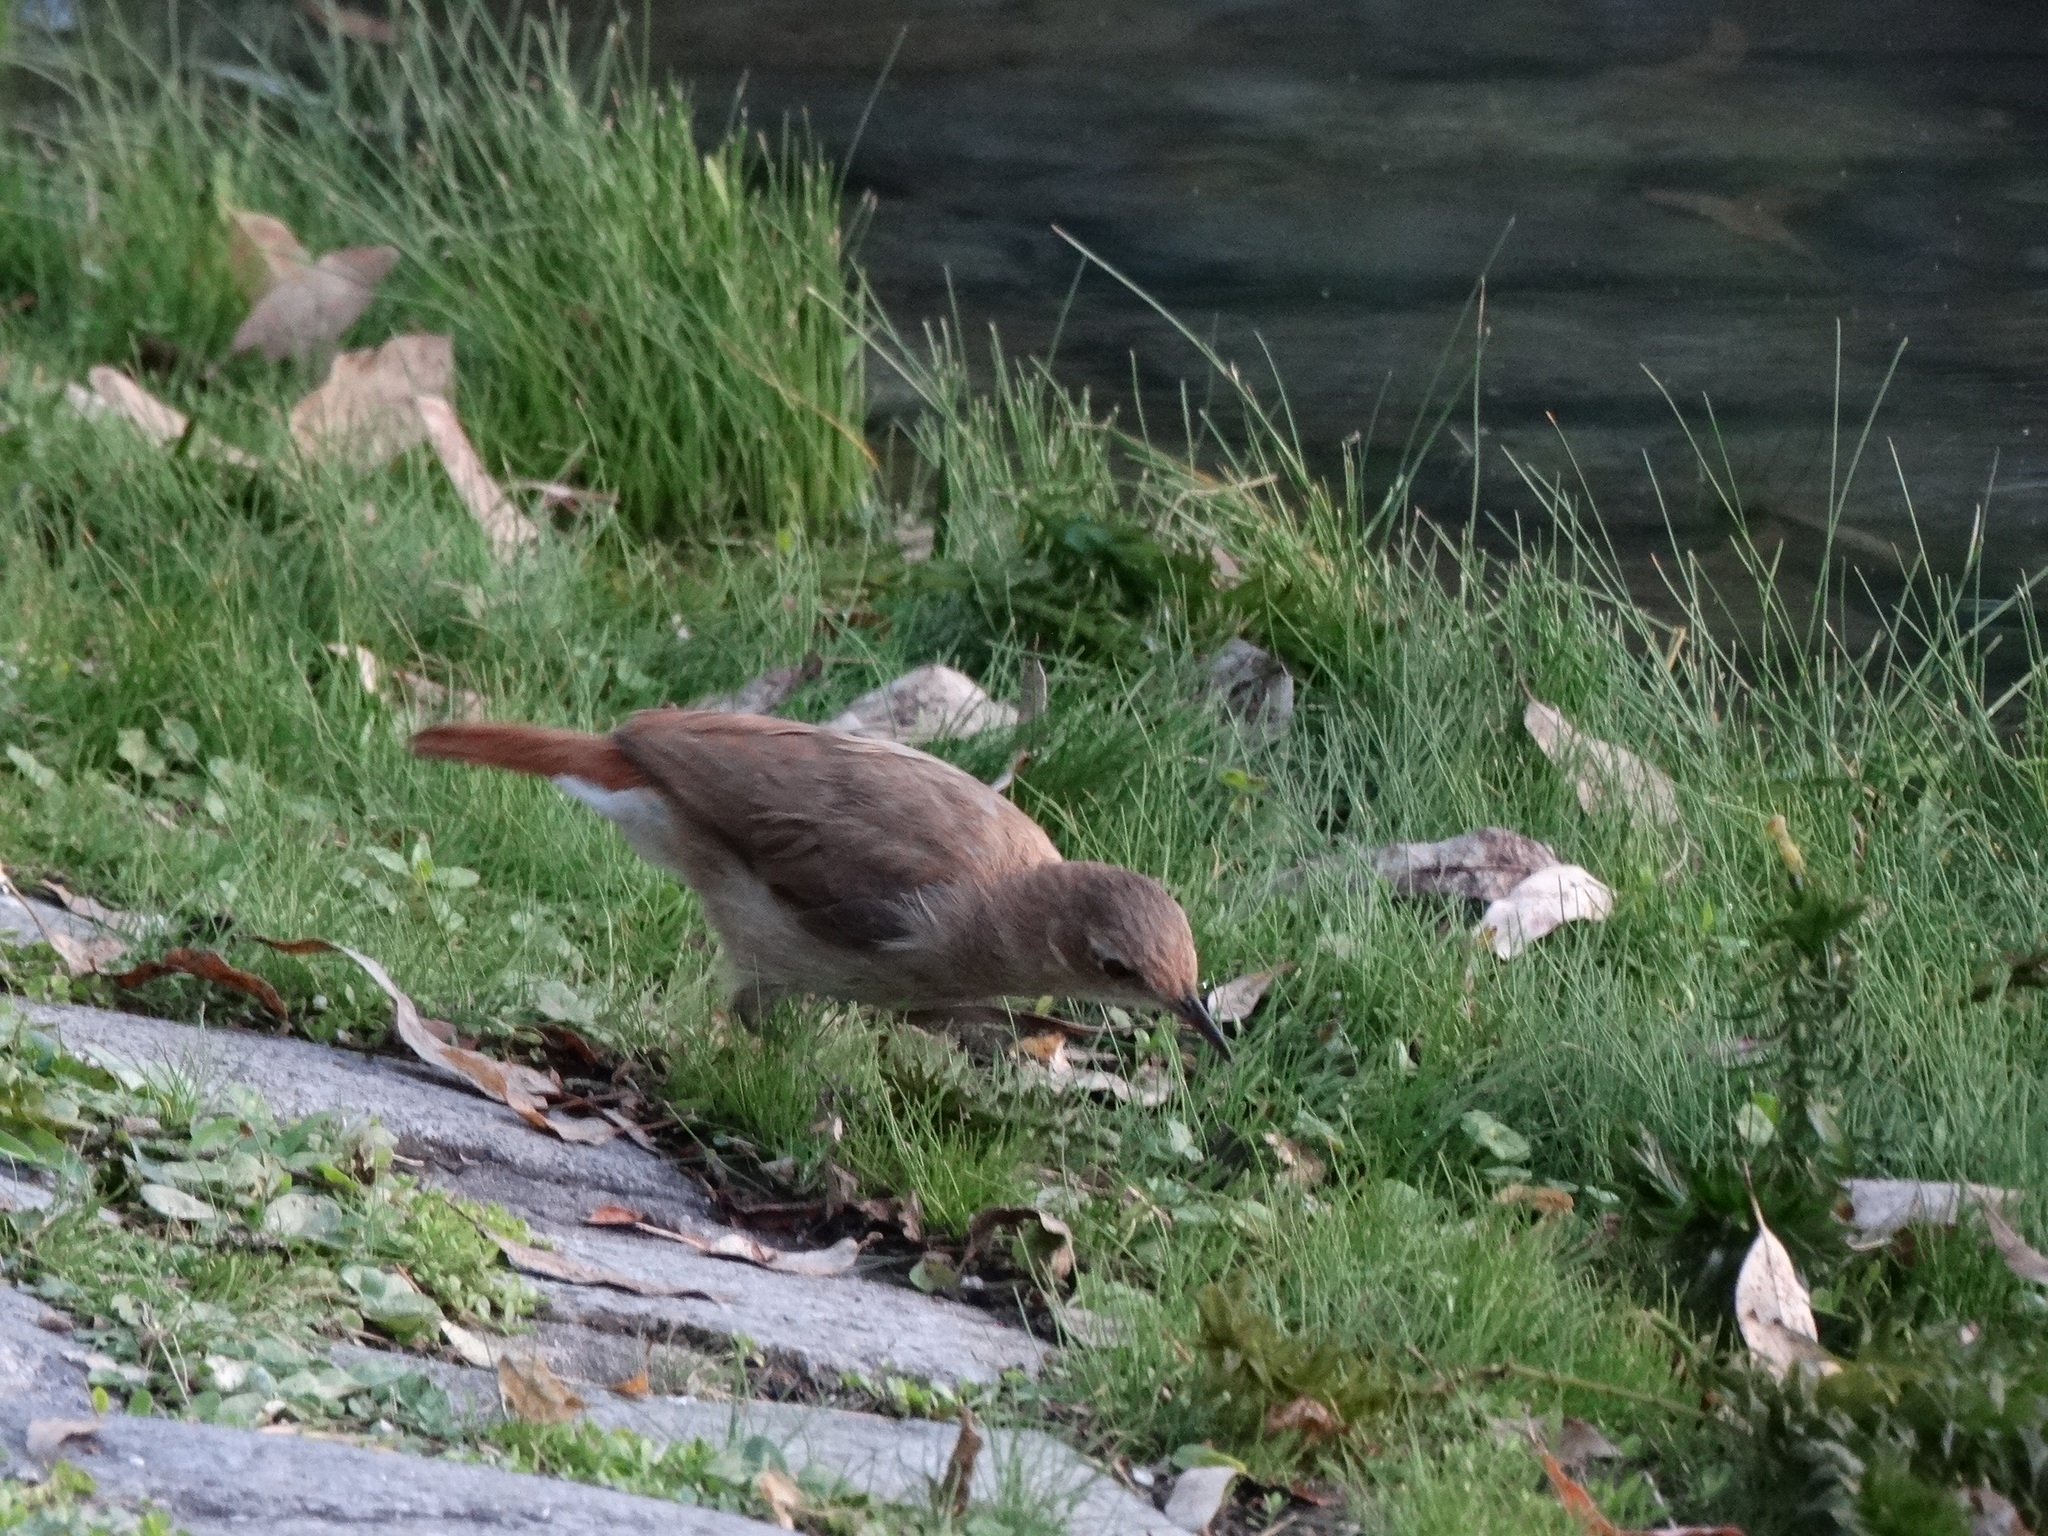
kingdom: Animalia
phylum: Chordata
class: Aves
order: Passeriformes
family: Furnariidae
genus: Furnarius
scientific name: Furnarius rufus
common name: Rufous hornero
